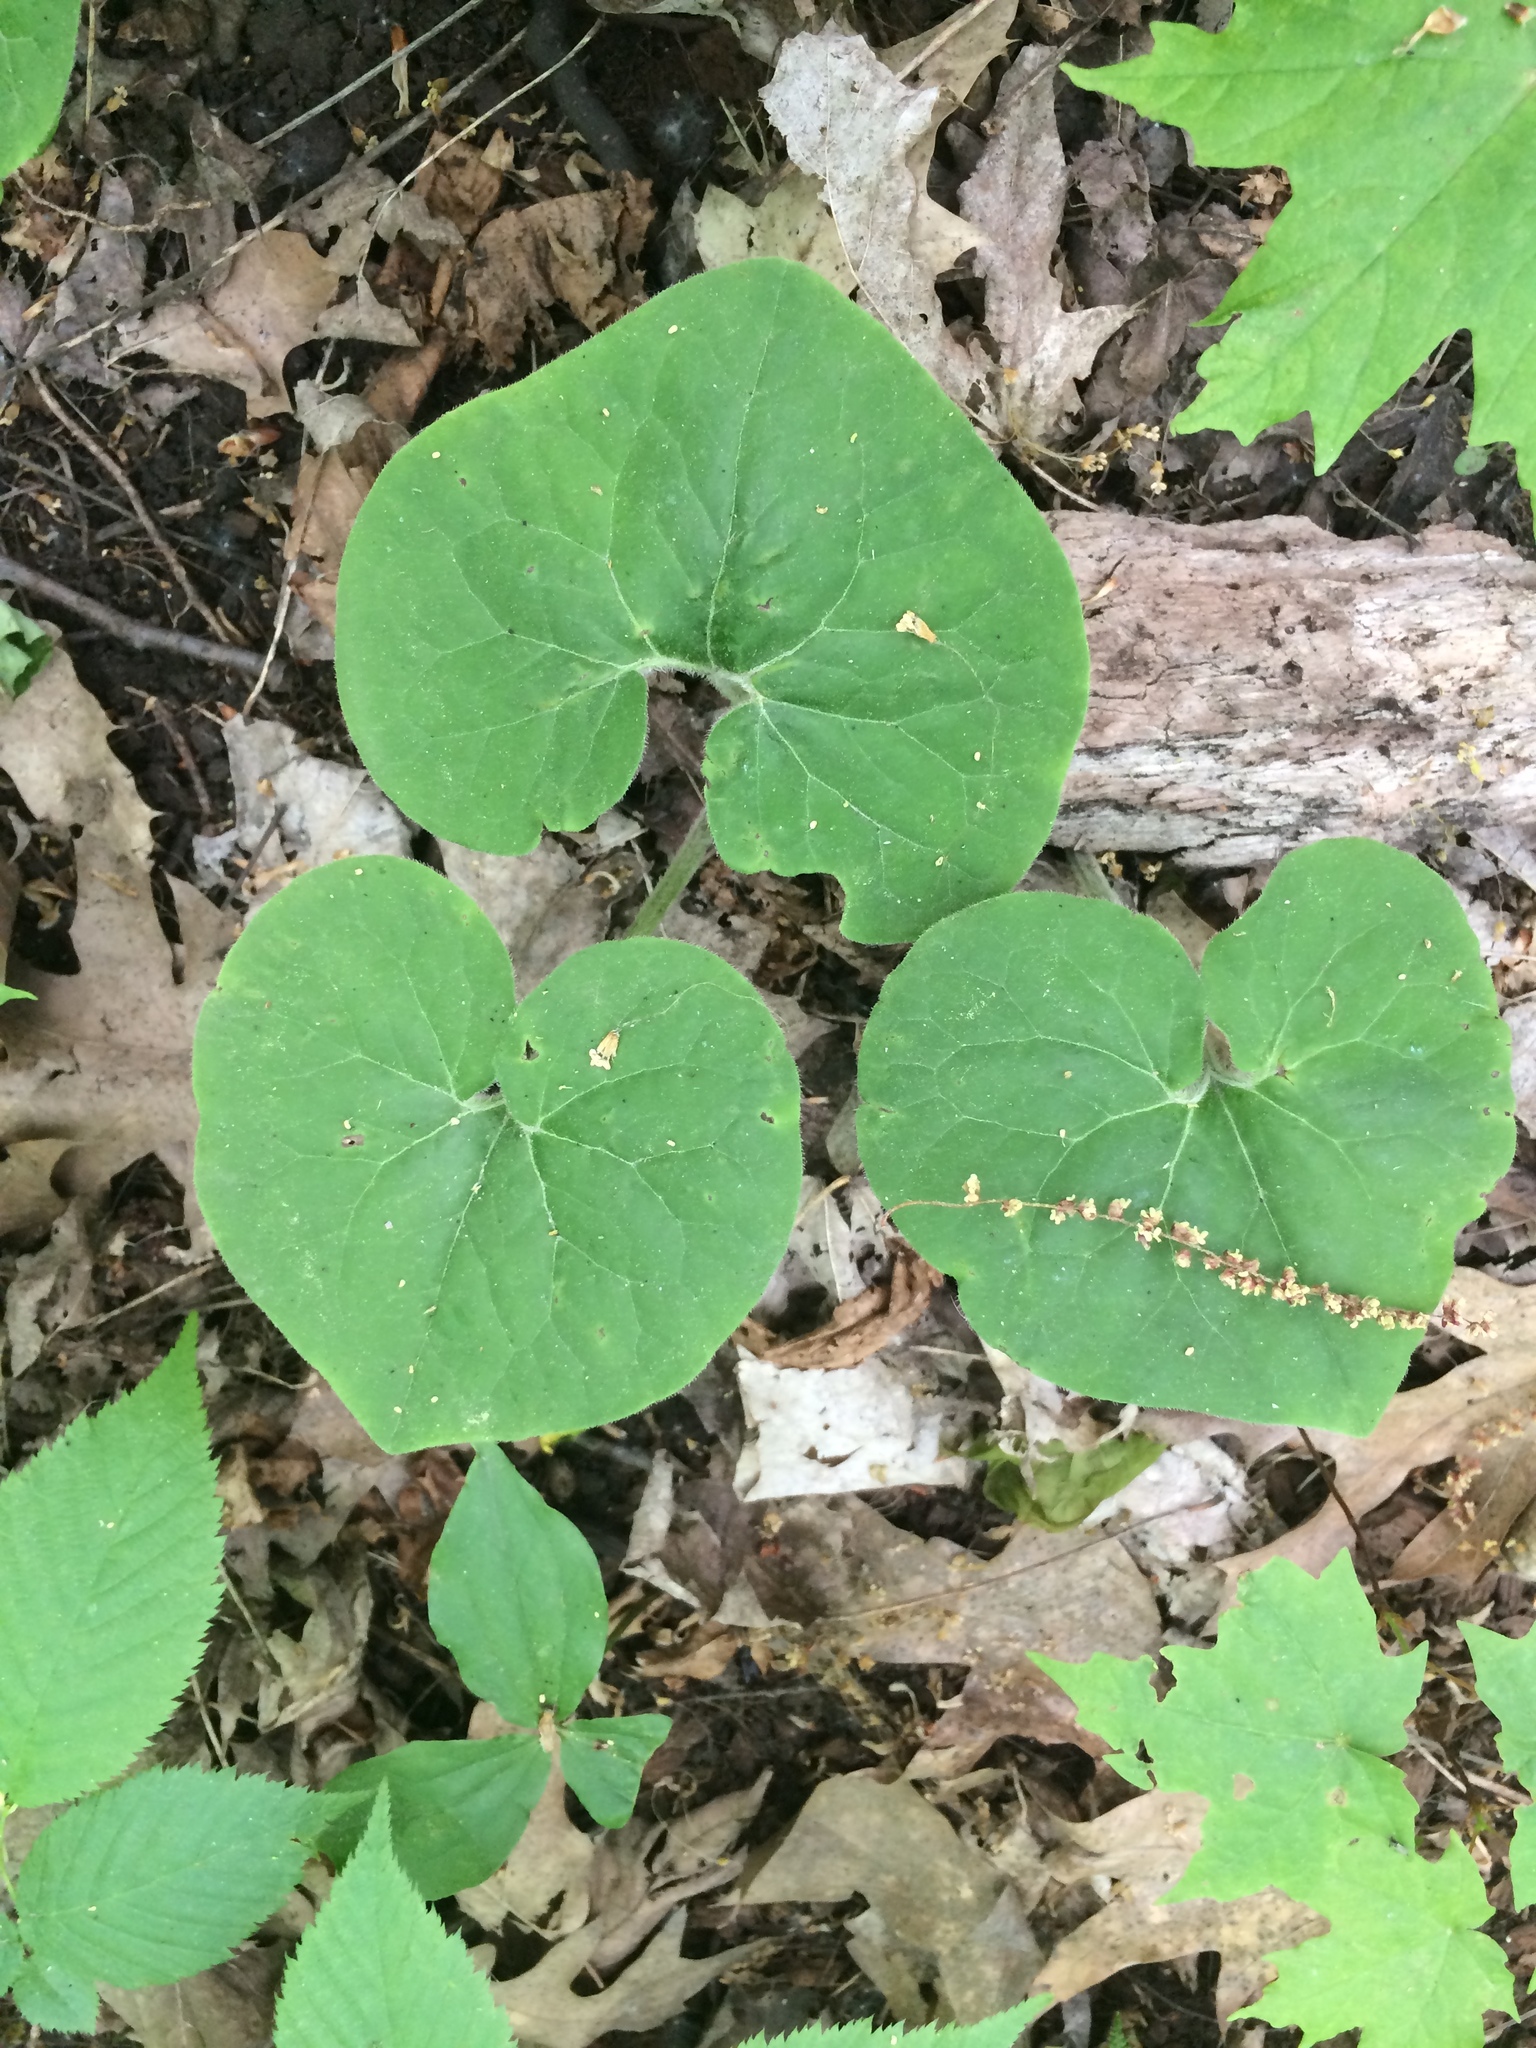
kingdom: Plantae
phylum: Tracheophyta
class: Magnoliopsida
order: Piperales
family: Aristolochiaceae
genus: Asarum
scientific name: Asarum canadense
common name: Wild ginger
